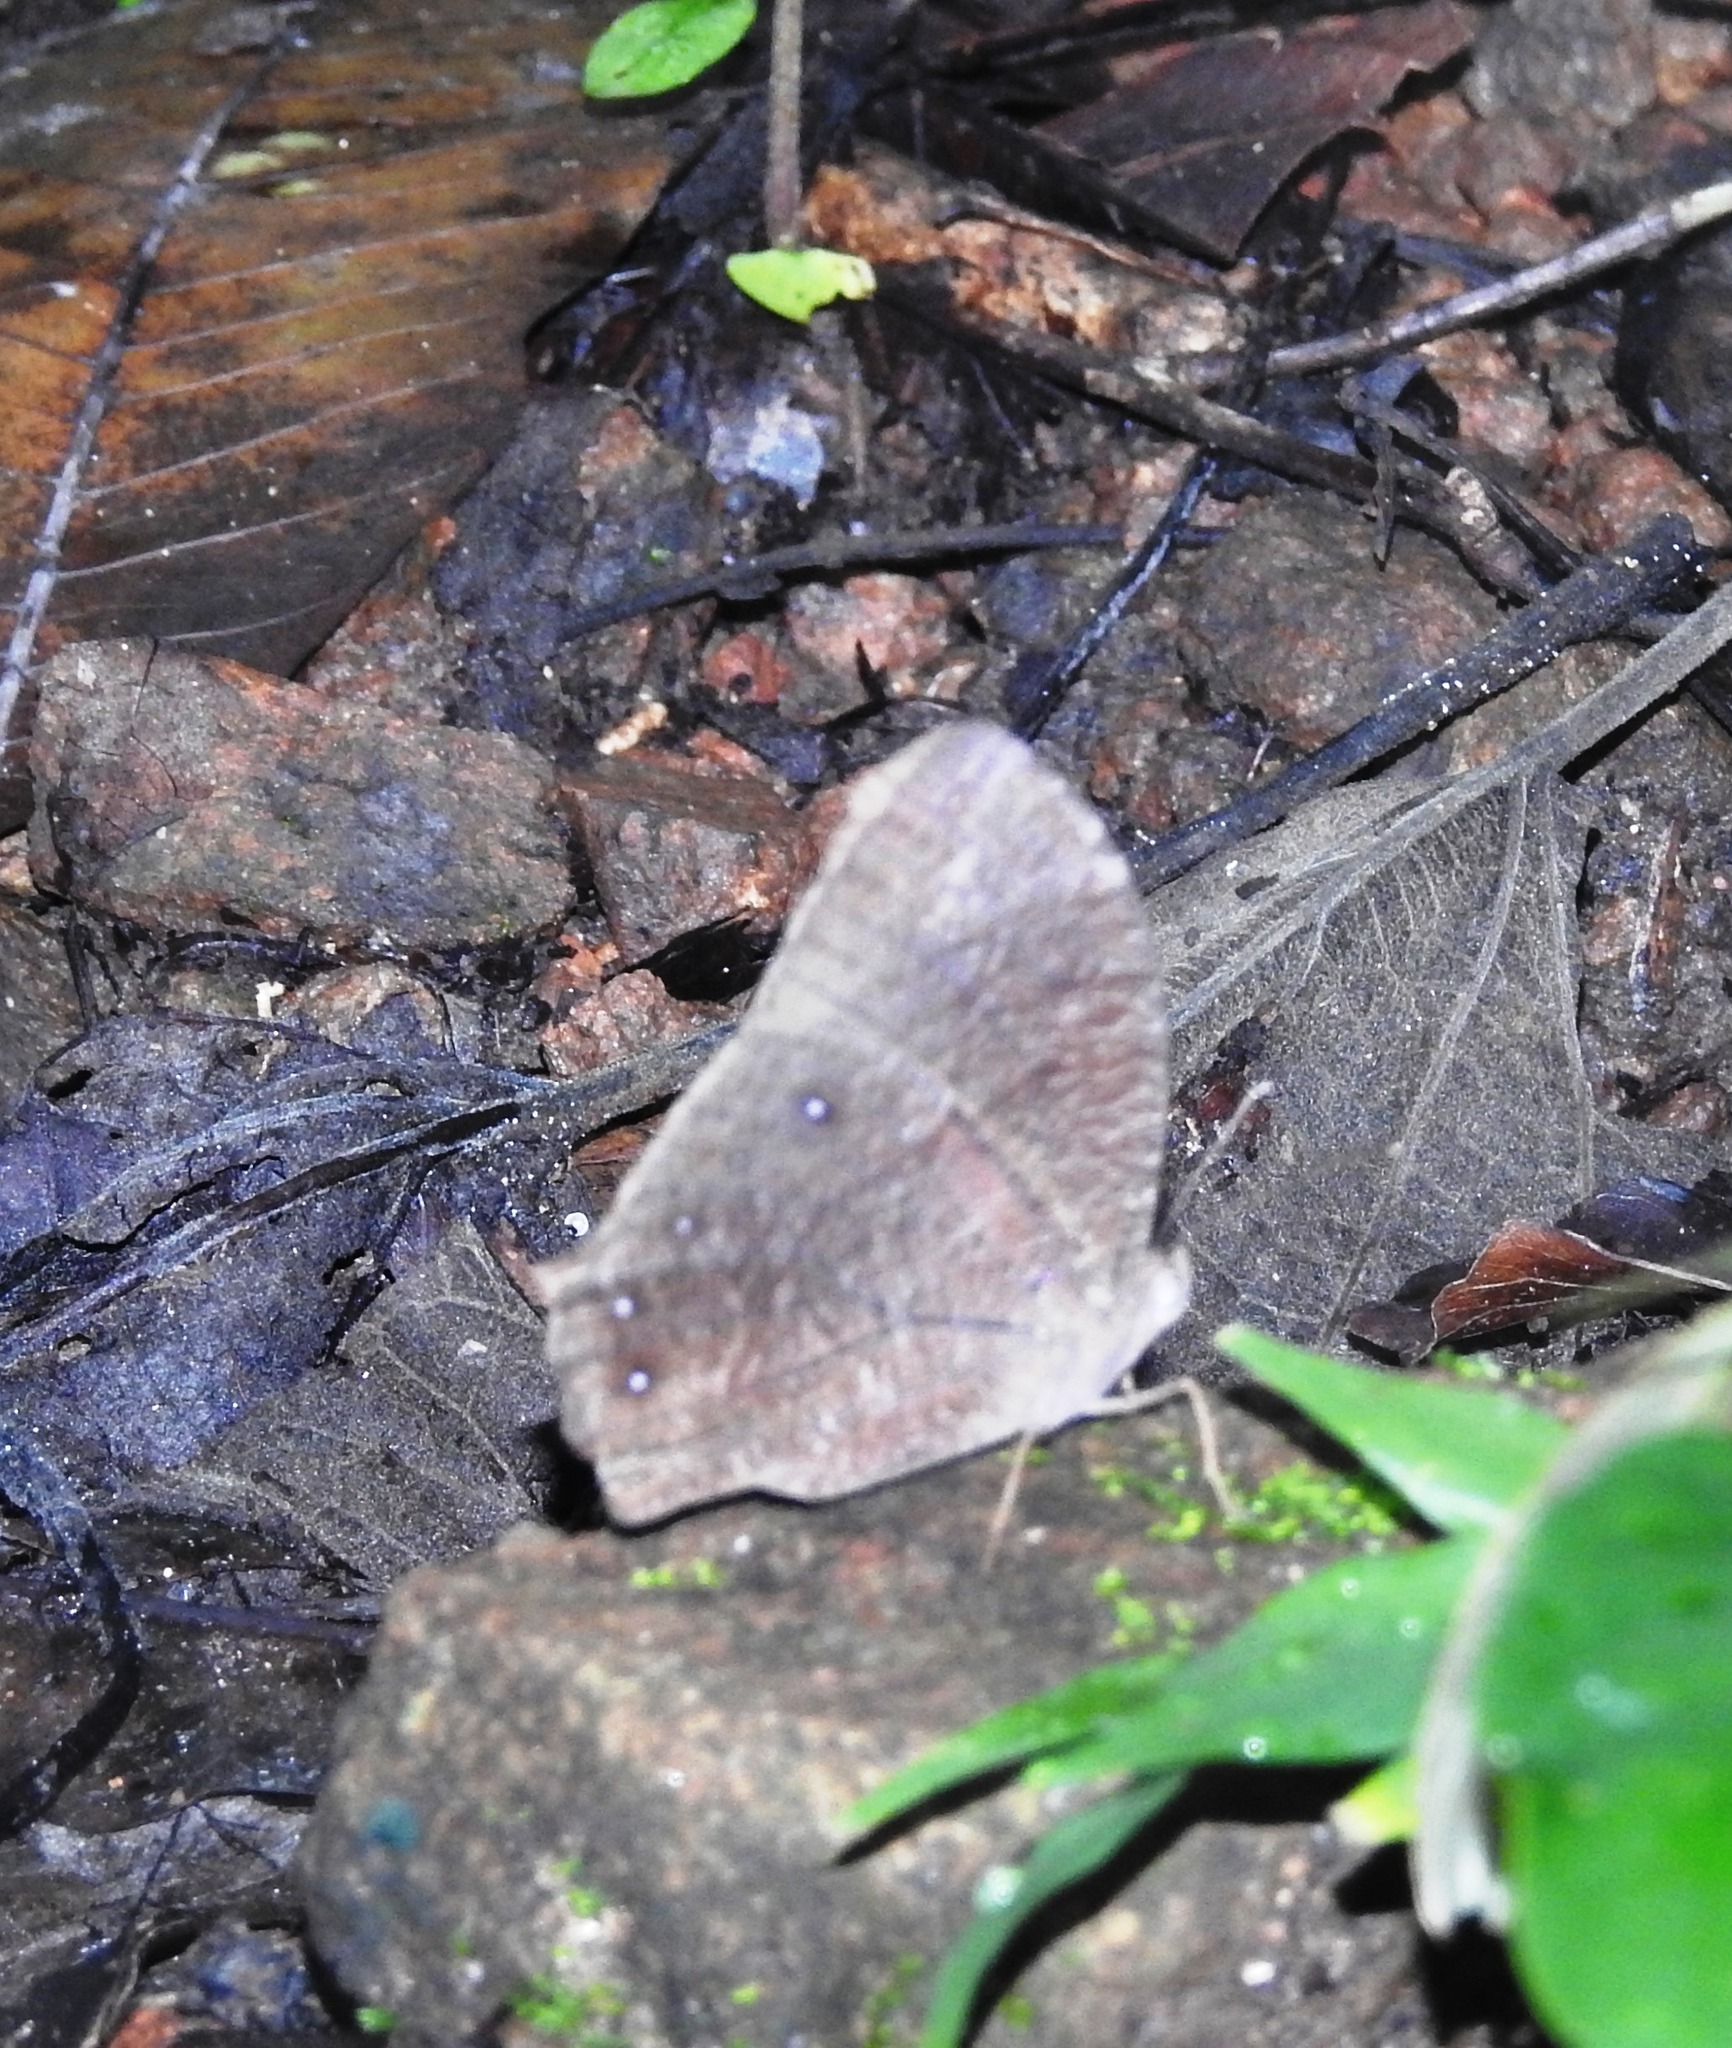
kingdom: Animalia
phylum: Arthropoda
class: Insecta
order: Lepidoptera
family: Nymphalidae
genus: Melanitis
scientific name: Melanitis phedima
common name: Dark evening brown
